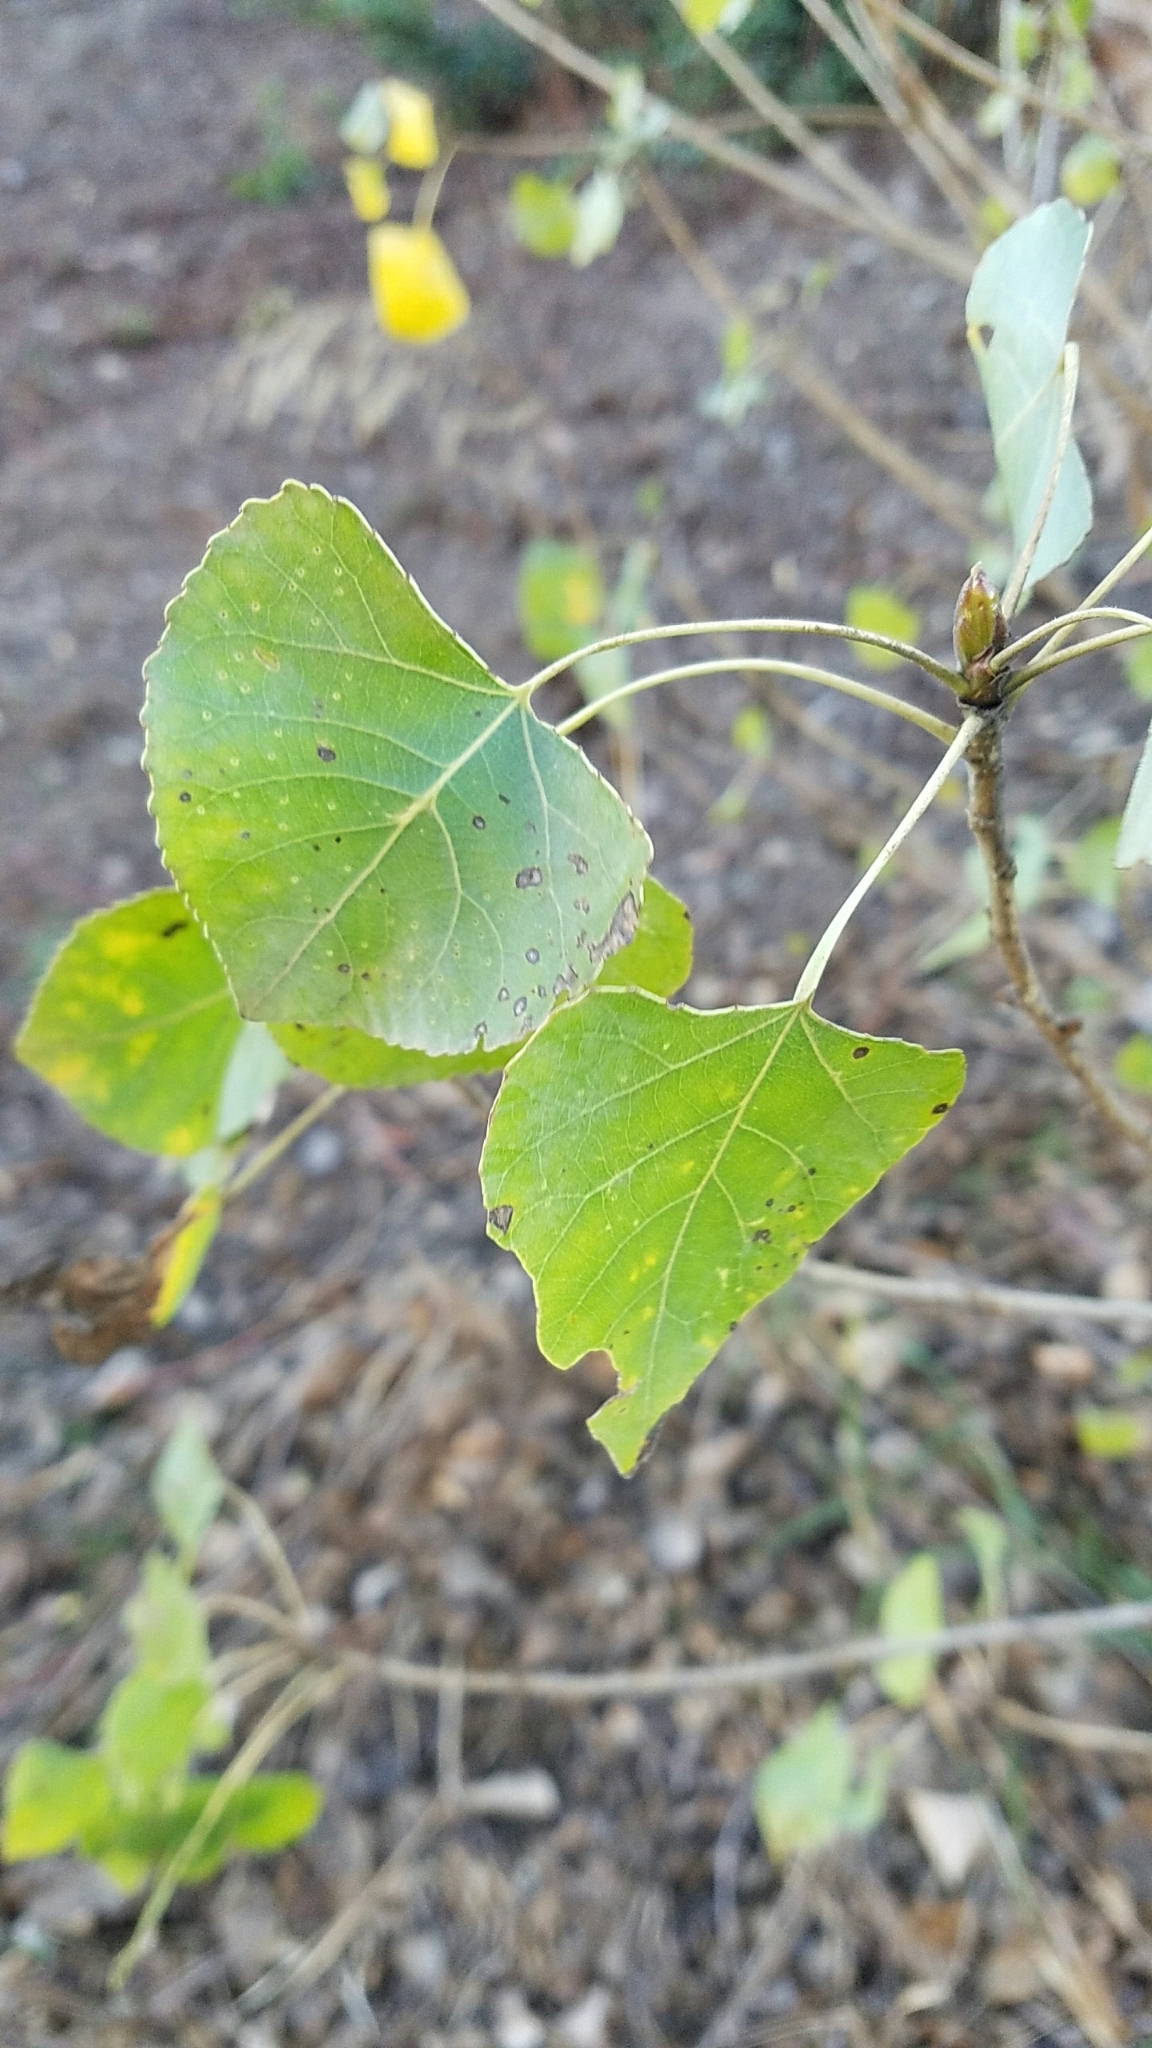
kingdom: Plantae
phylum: Tracheophyta
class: Magnoliopsida
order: Malpighiales
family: Salicaceae
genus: Populus
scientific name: Populus fremontii
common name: Fremont's cottonwood
